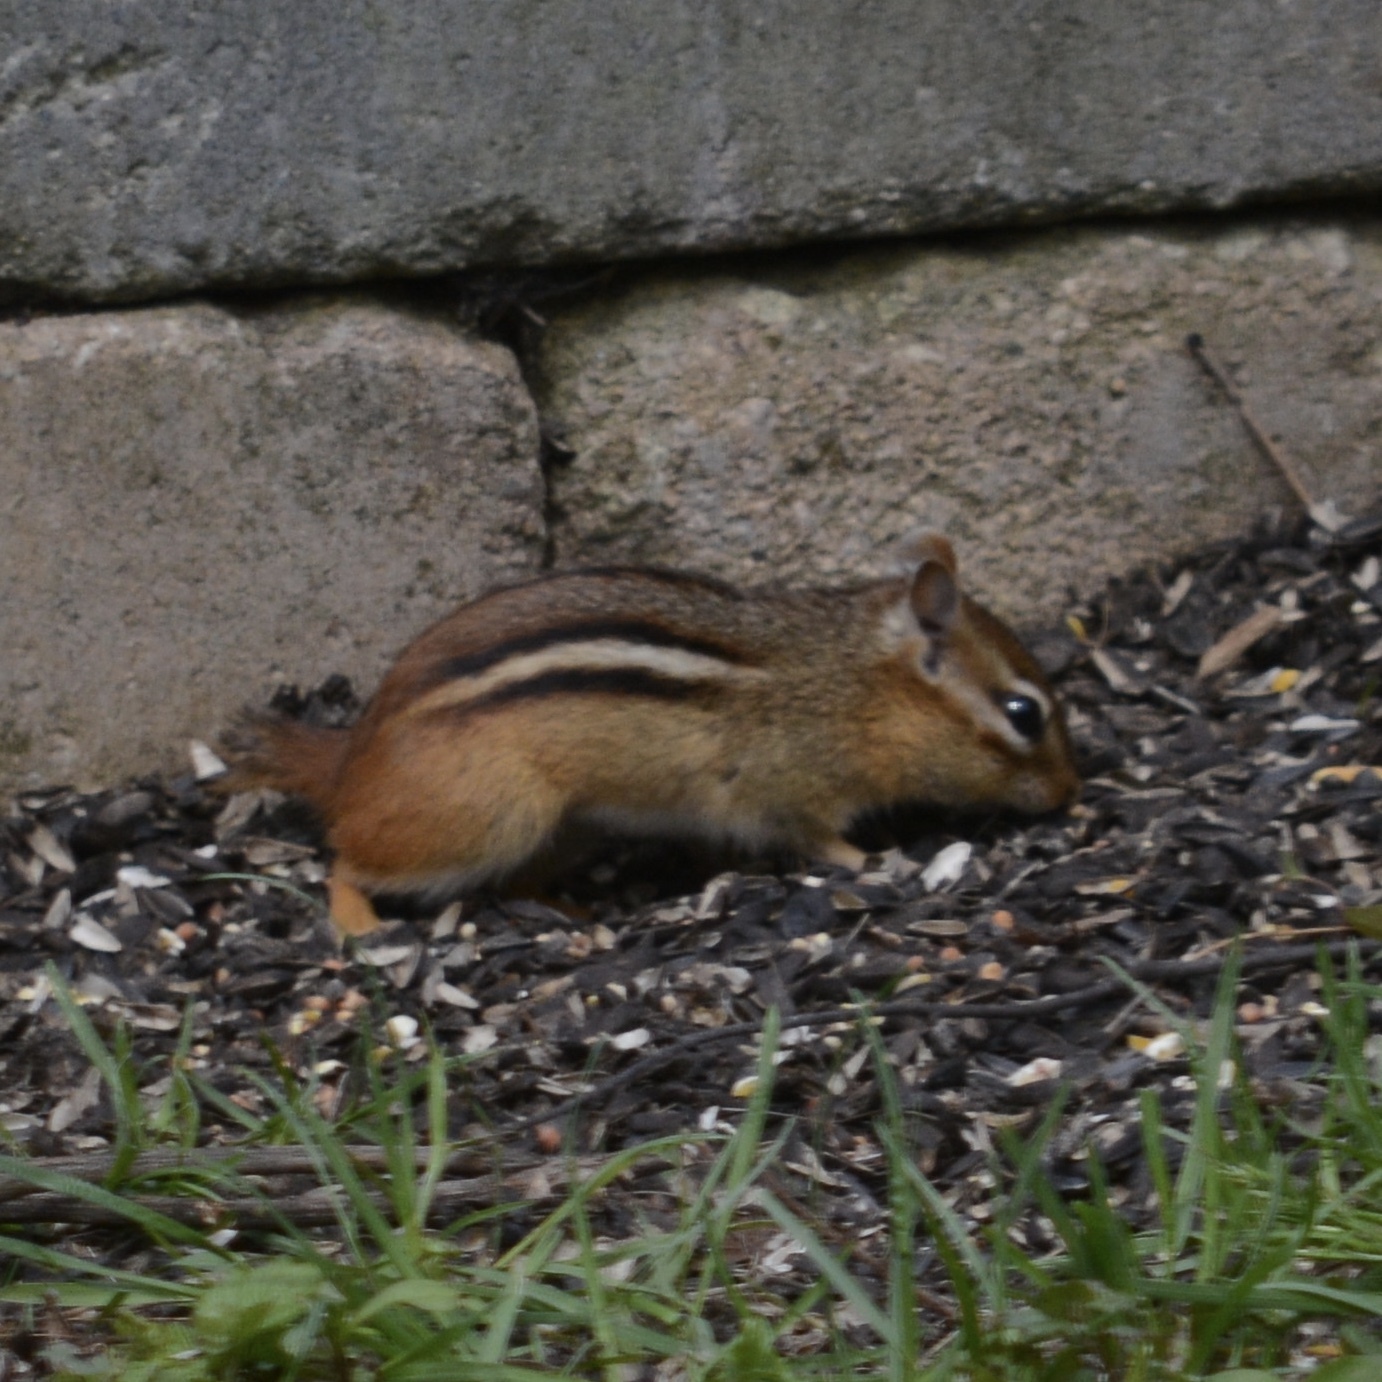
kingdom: Animalia
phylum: Chordata
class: Mammalia
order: Rodentia
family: Sciuridae
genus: Tamias
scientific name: Tamias striatus
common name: Eastern chipmunk
